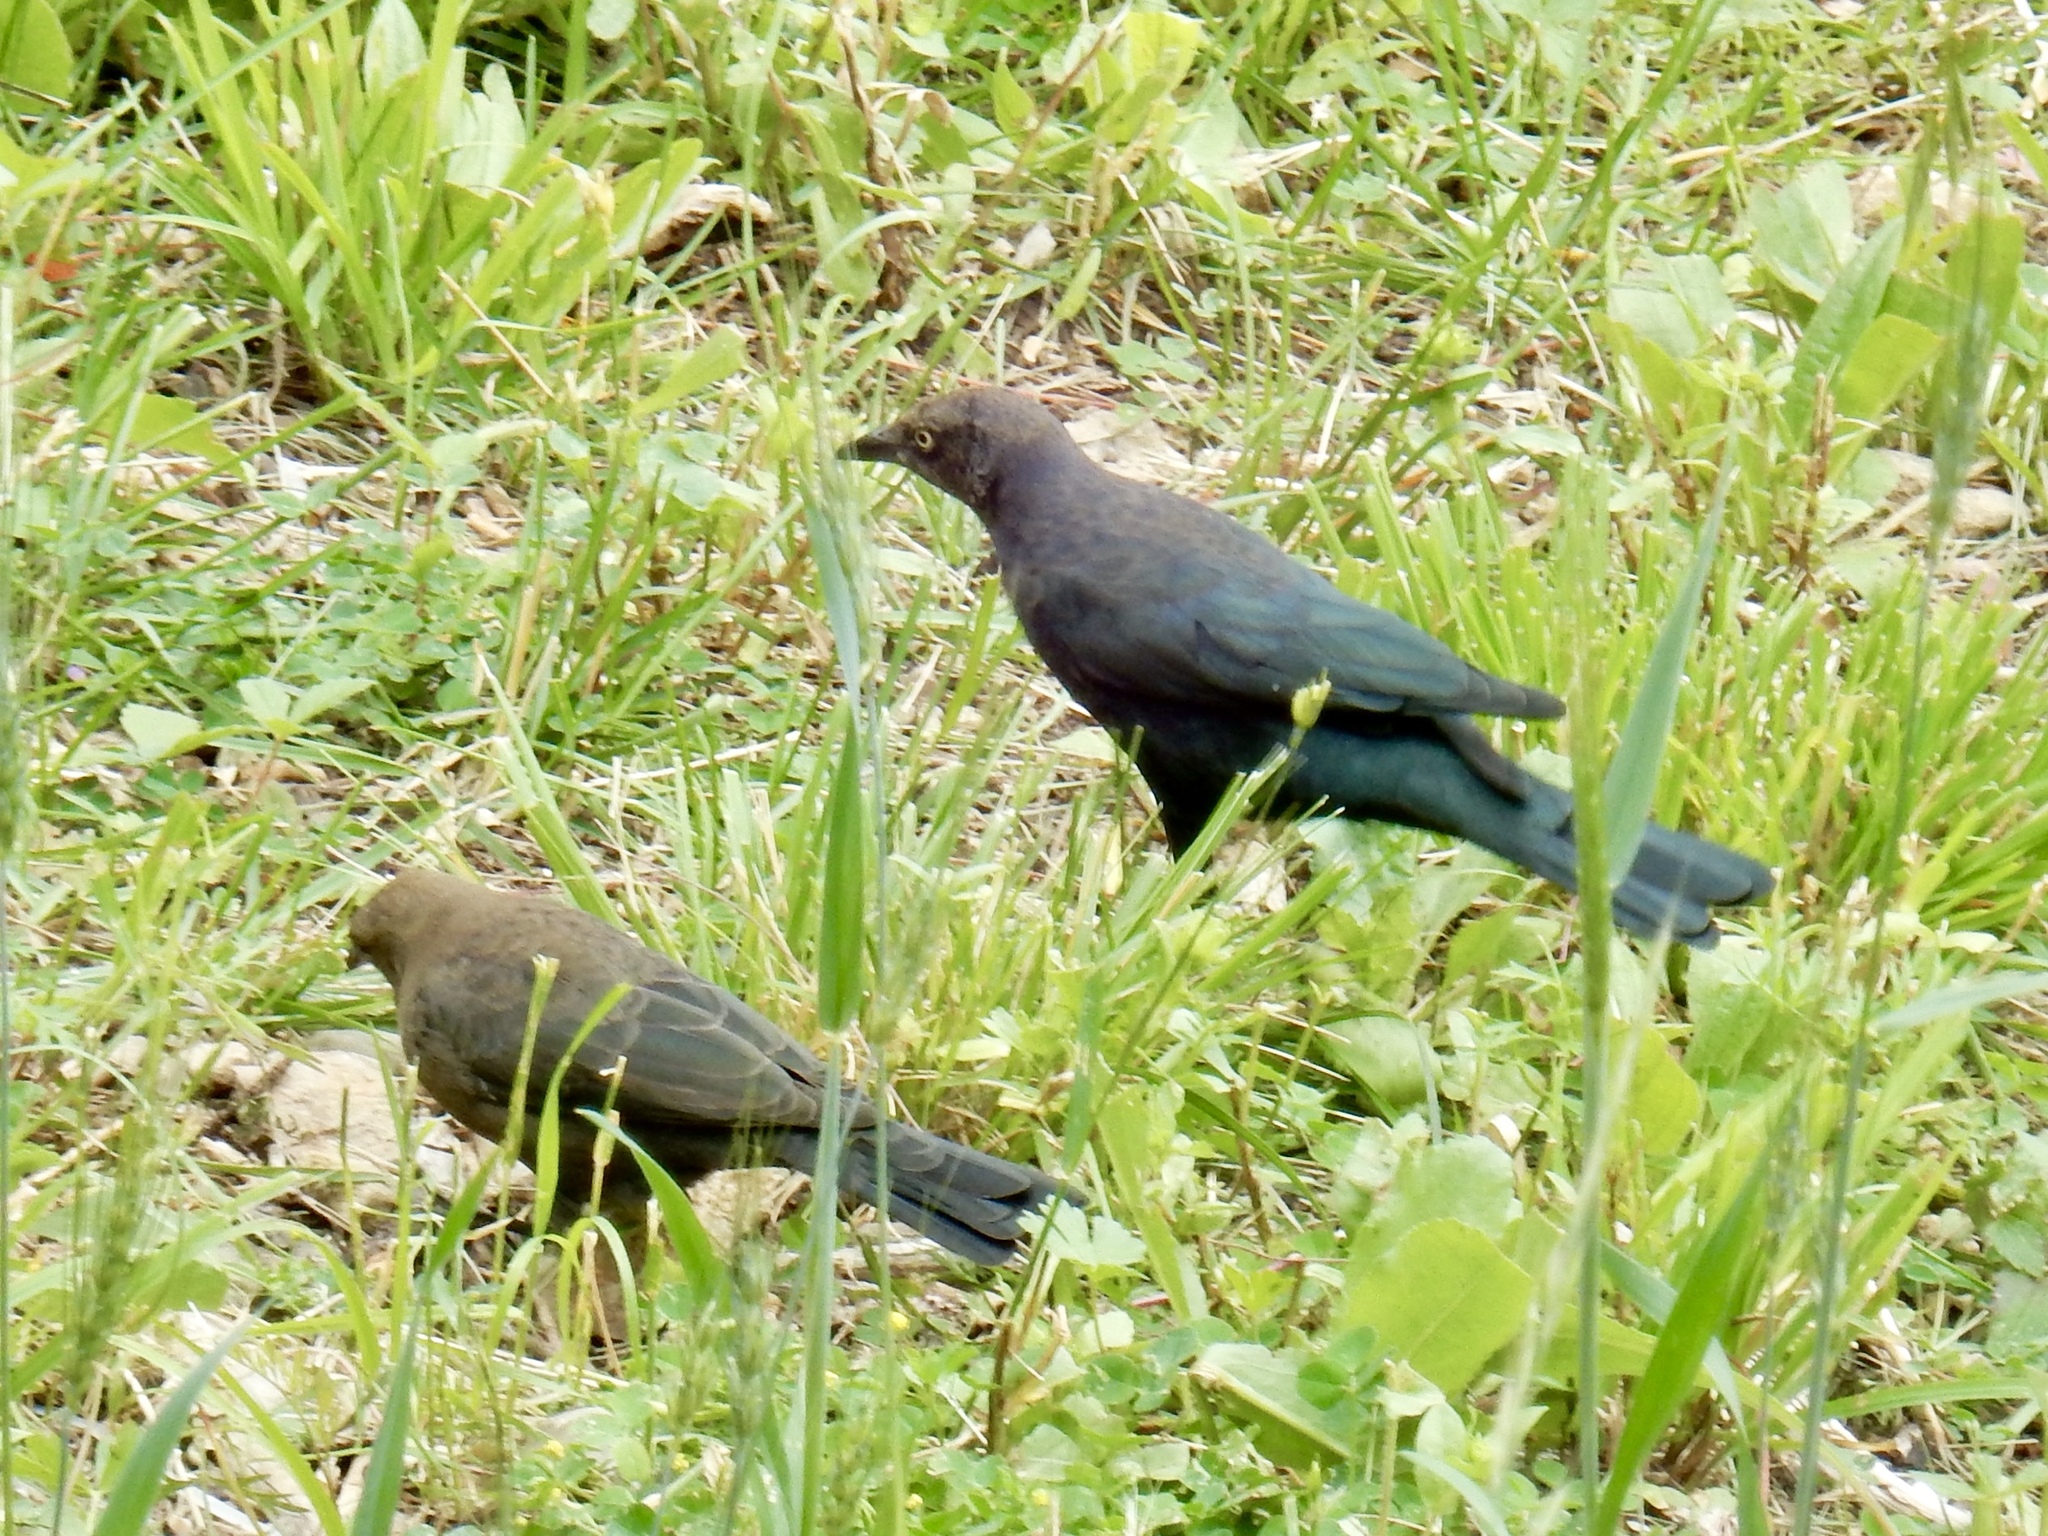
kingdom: Animalia
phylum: Chordata
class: Aves
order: Passeriformes
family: Icteridae
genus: Euphagus
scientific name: Euphagus cyanocephalus
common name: Brewer's blackbird
